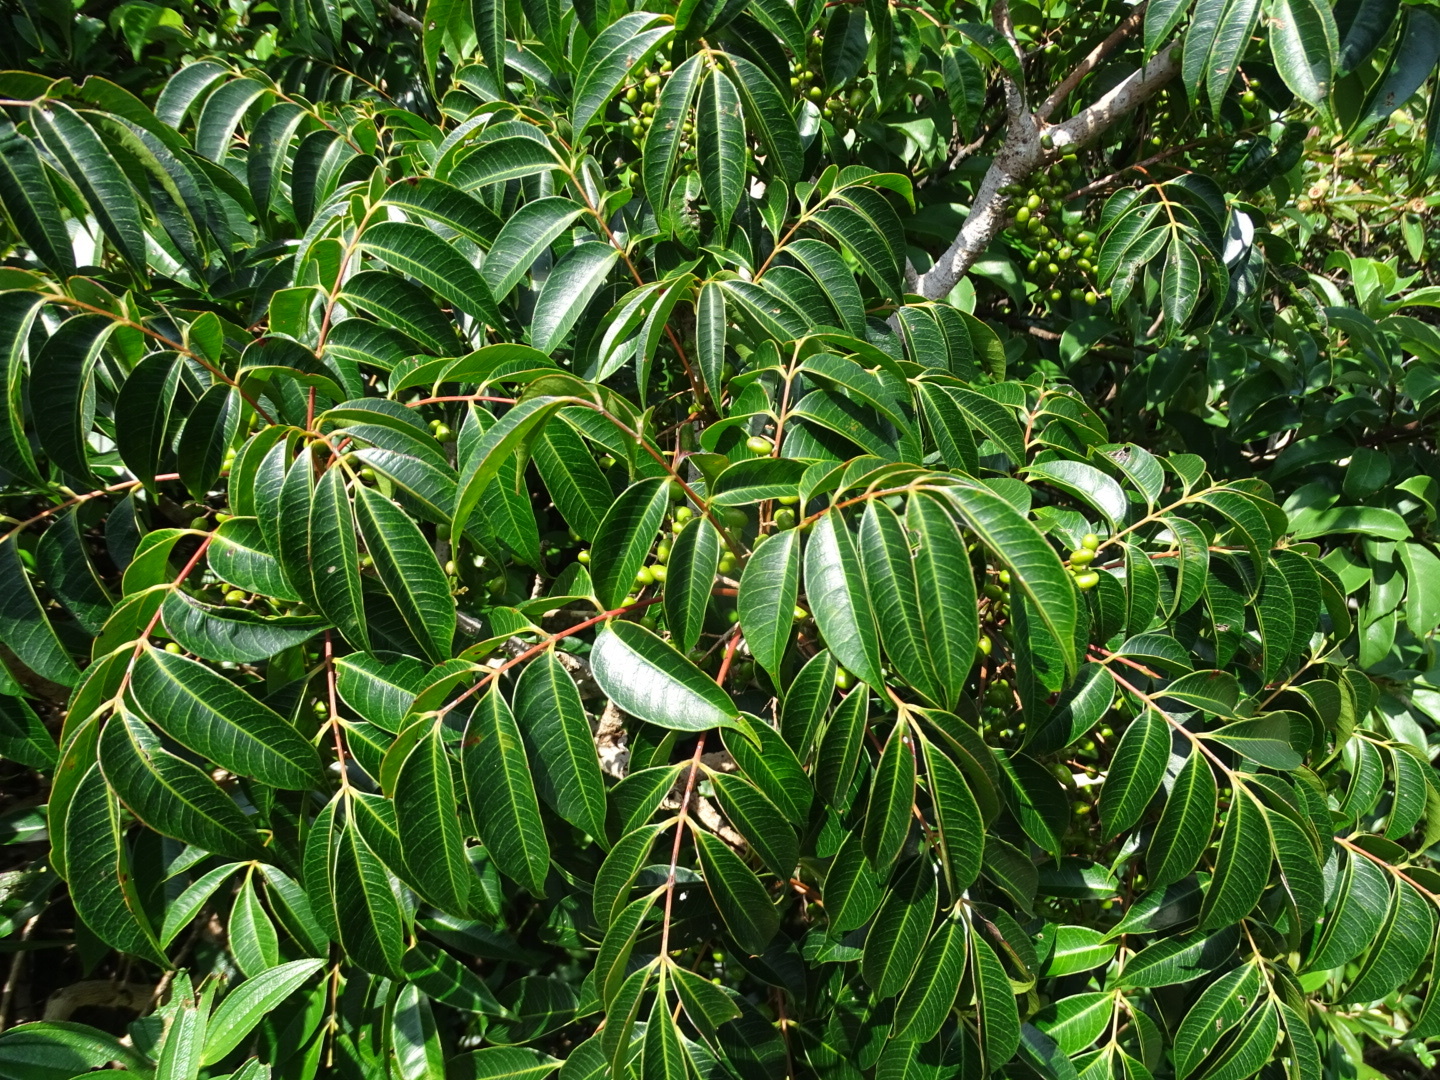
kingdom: Plantae
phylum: Tracheophyta
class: Magnoliopsida
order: Sapindales
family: Anacardiaceae
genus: Toxicodendron
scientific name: Toxicodendron succedaneum
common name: Wax tree
